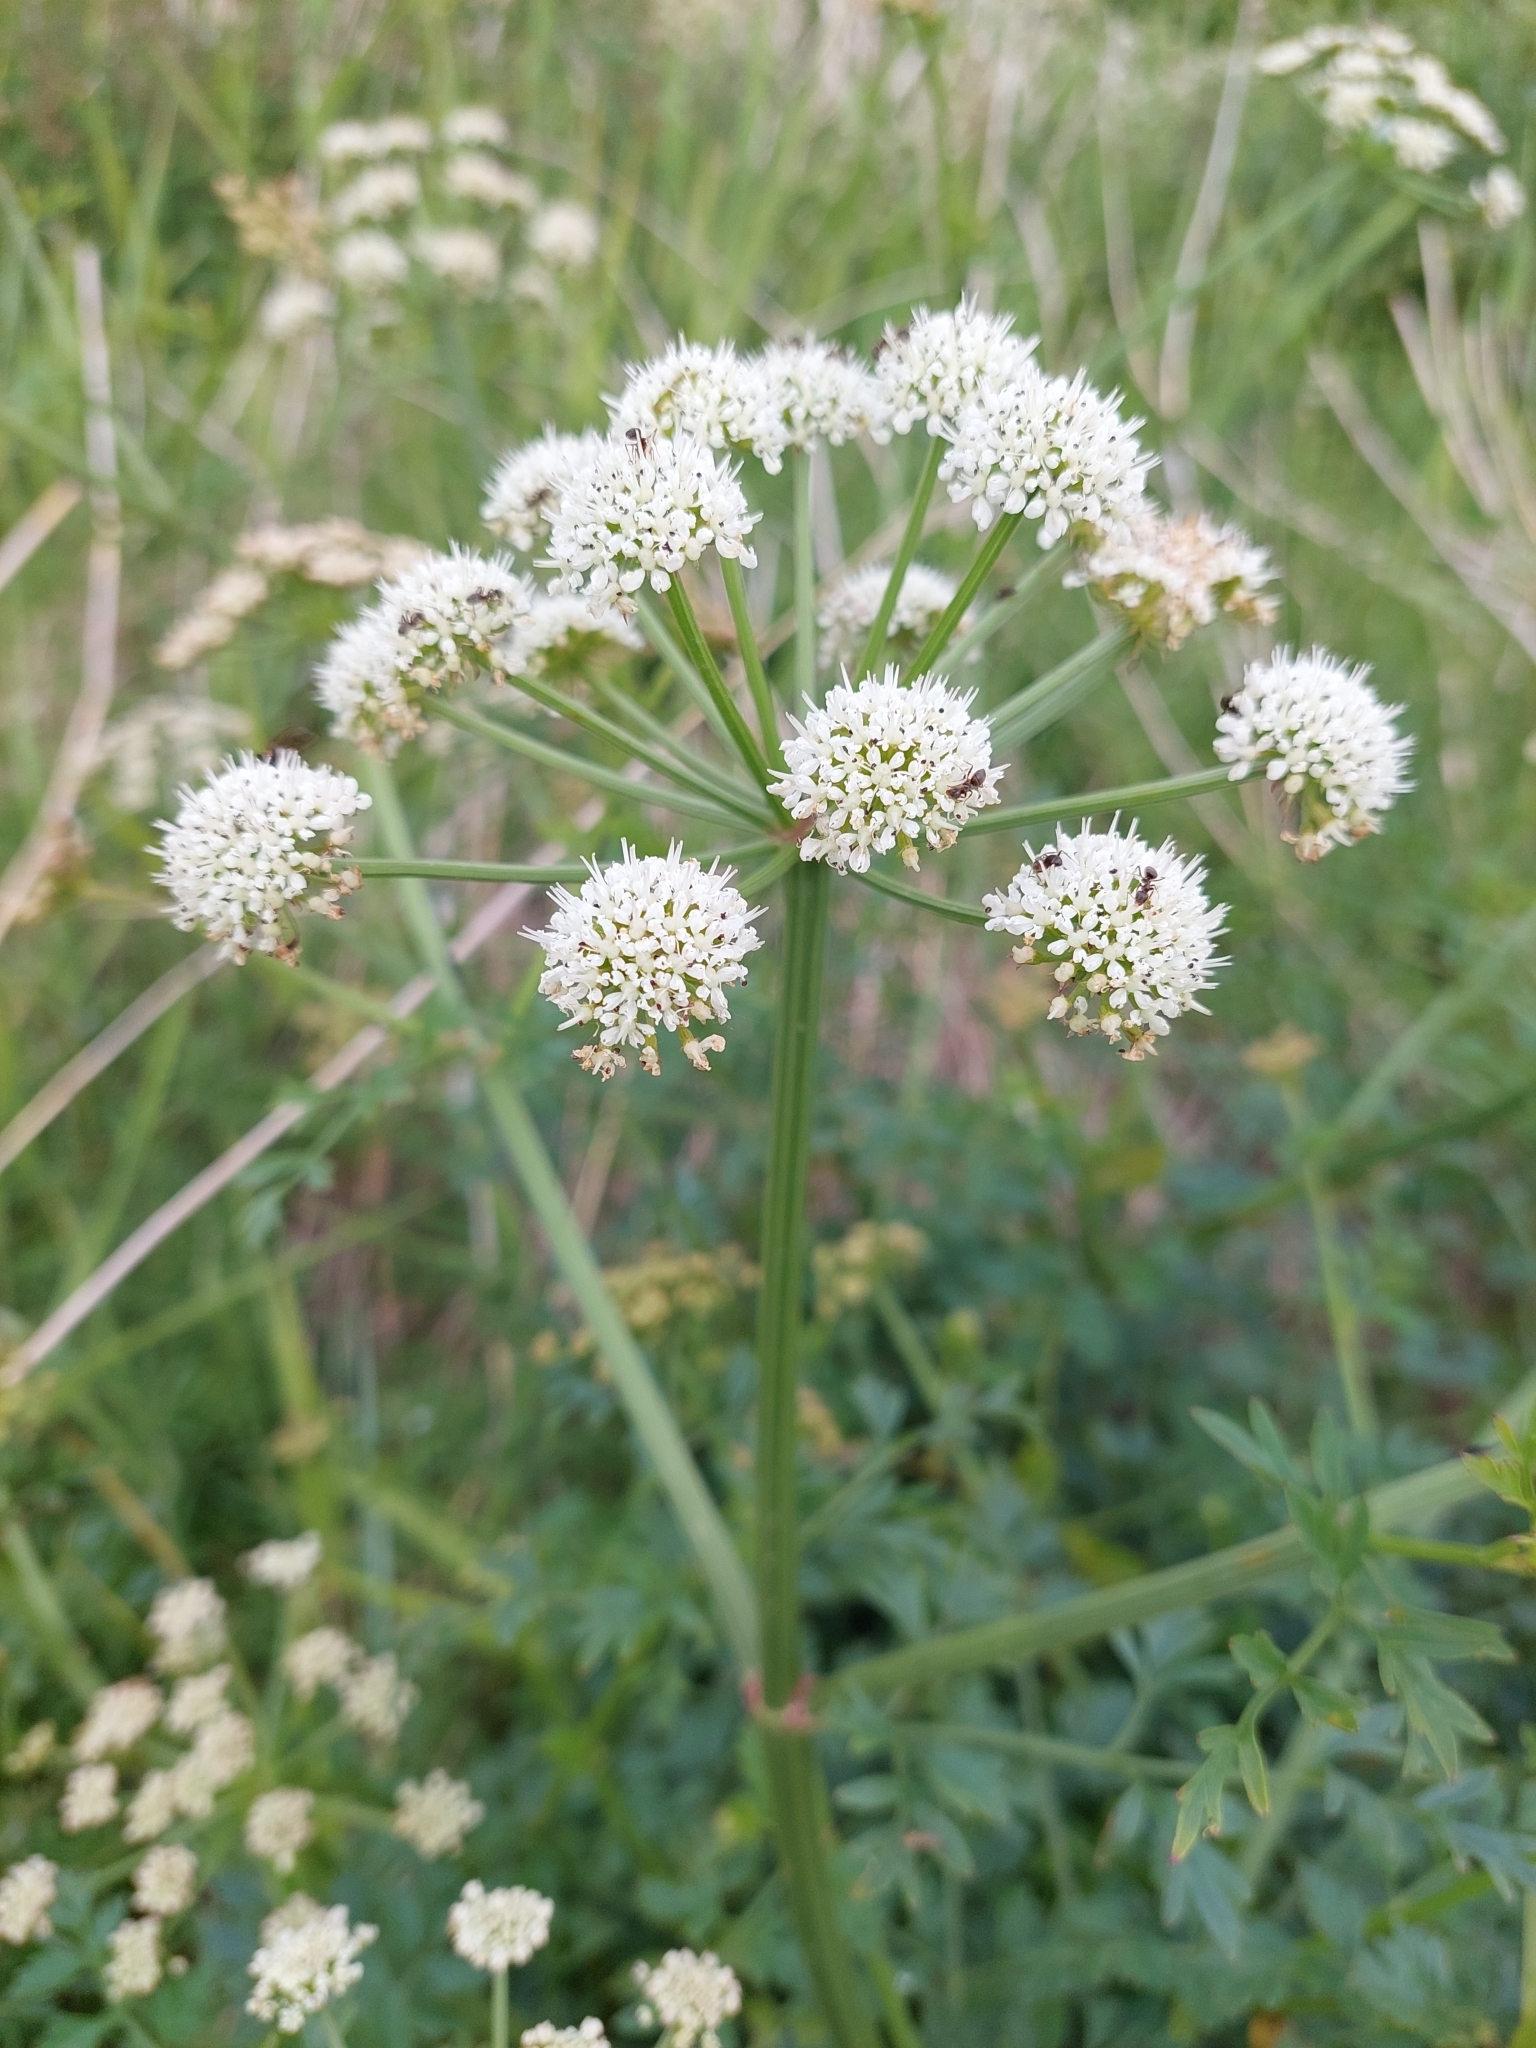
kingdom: Plantae
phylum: Tracheophyta
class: Magnoliopsida
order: Apiales
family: Apiaceae
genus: Oenanthe
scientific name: Oenanthe crocata
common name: Hemlock water-dropwort
